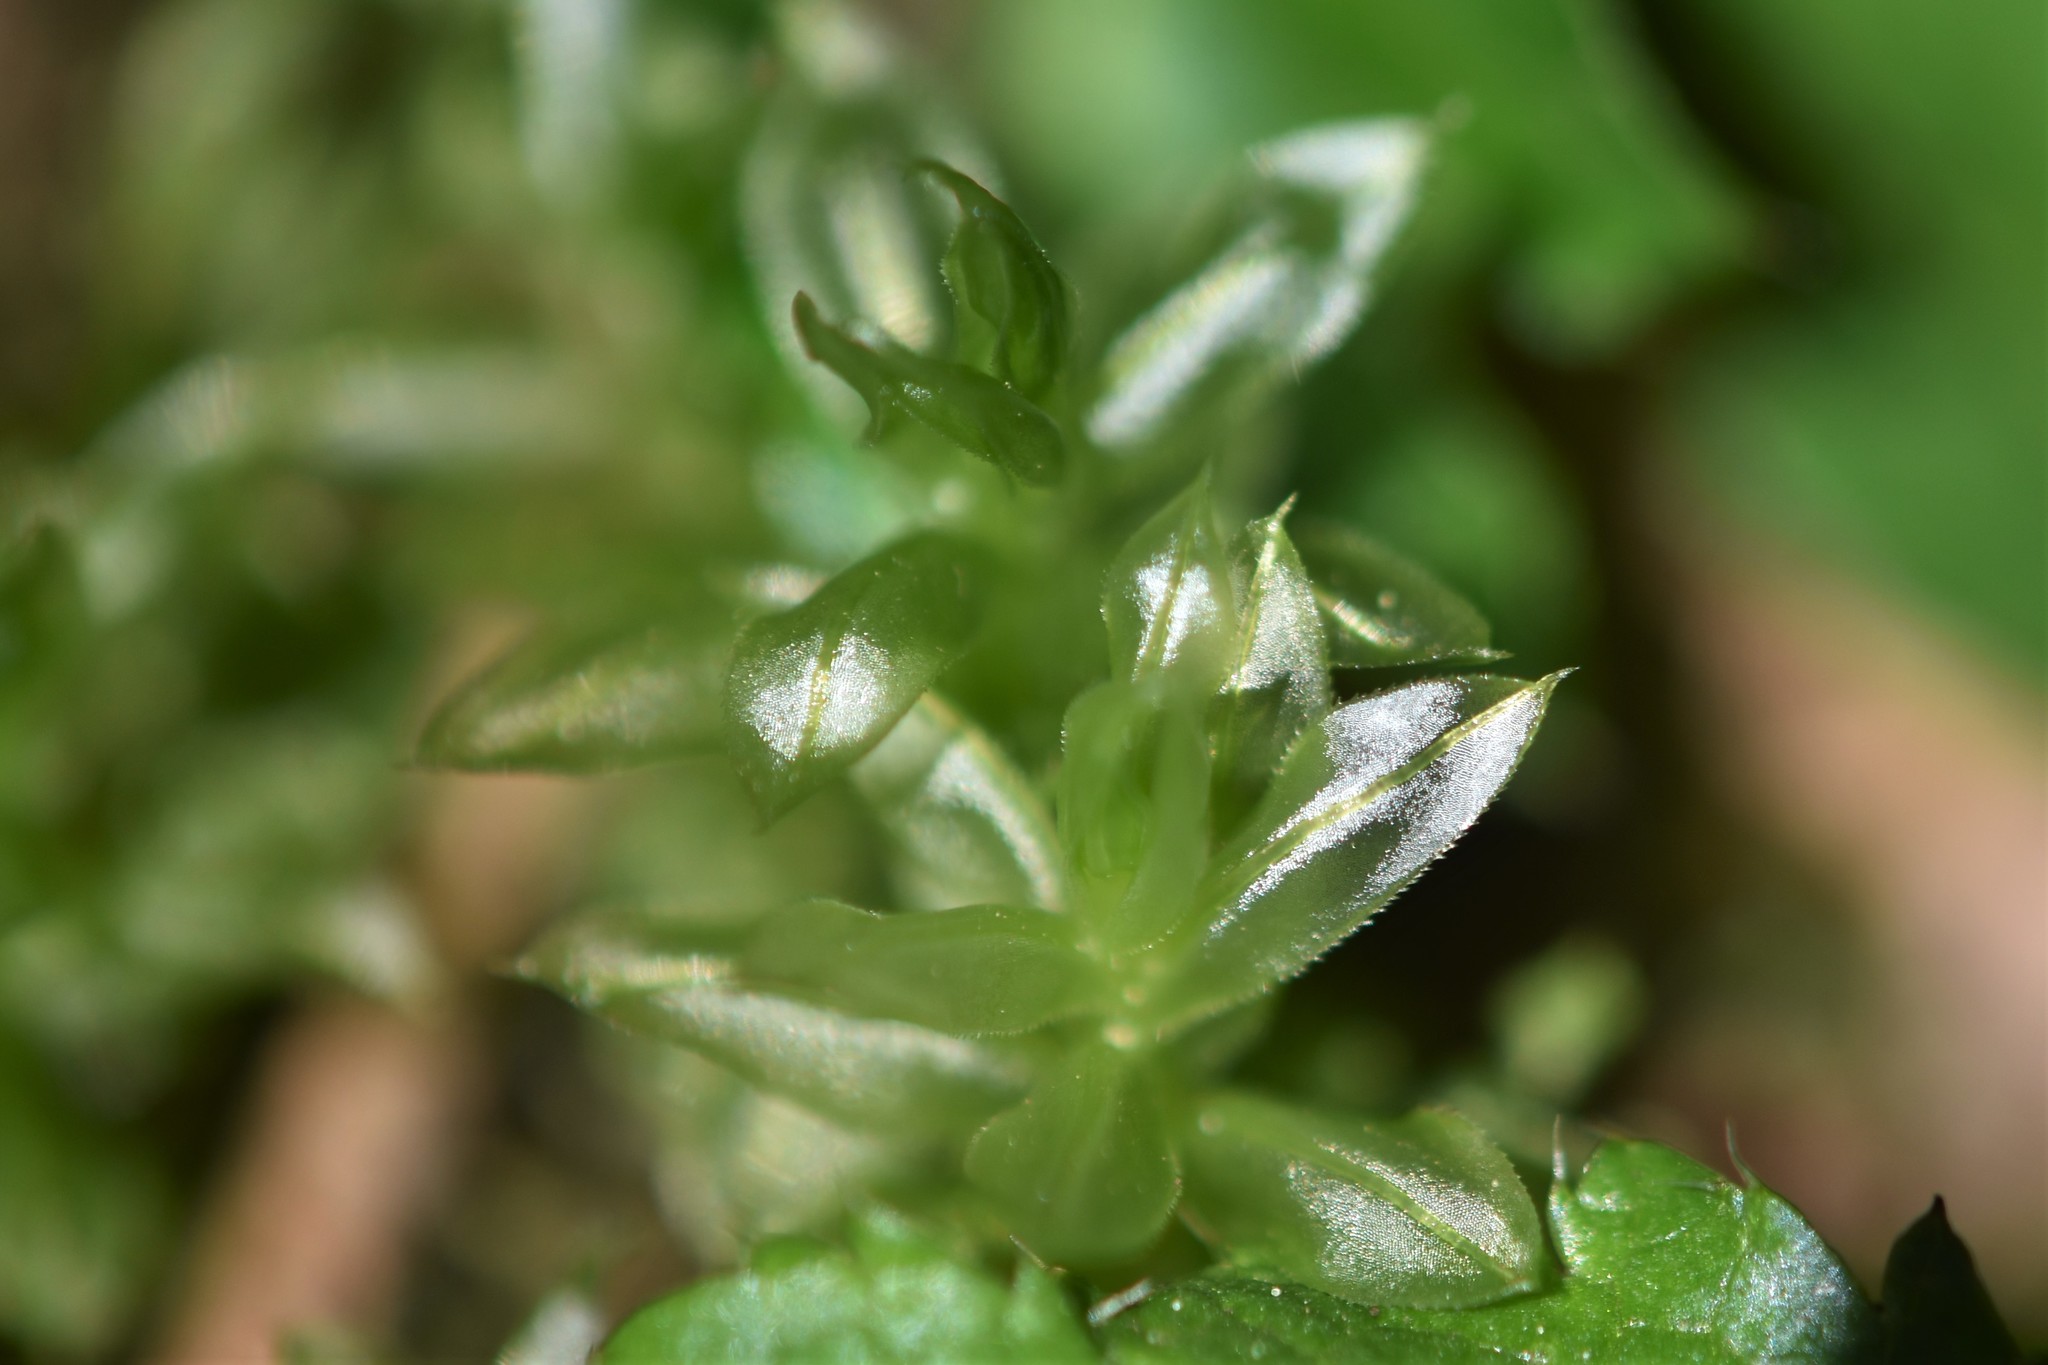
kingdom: Plantae
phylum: Bryophyta
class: Bryopsida
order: Bryales
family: Mniaceae
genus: Plagiomnium
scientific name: Plagiomnium insigne
